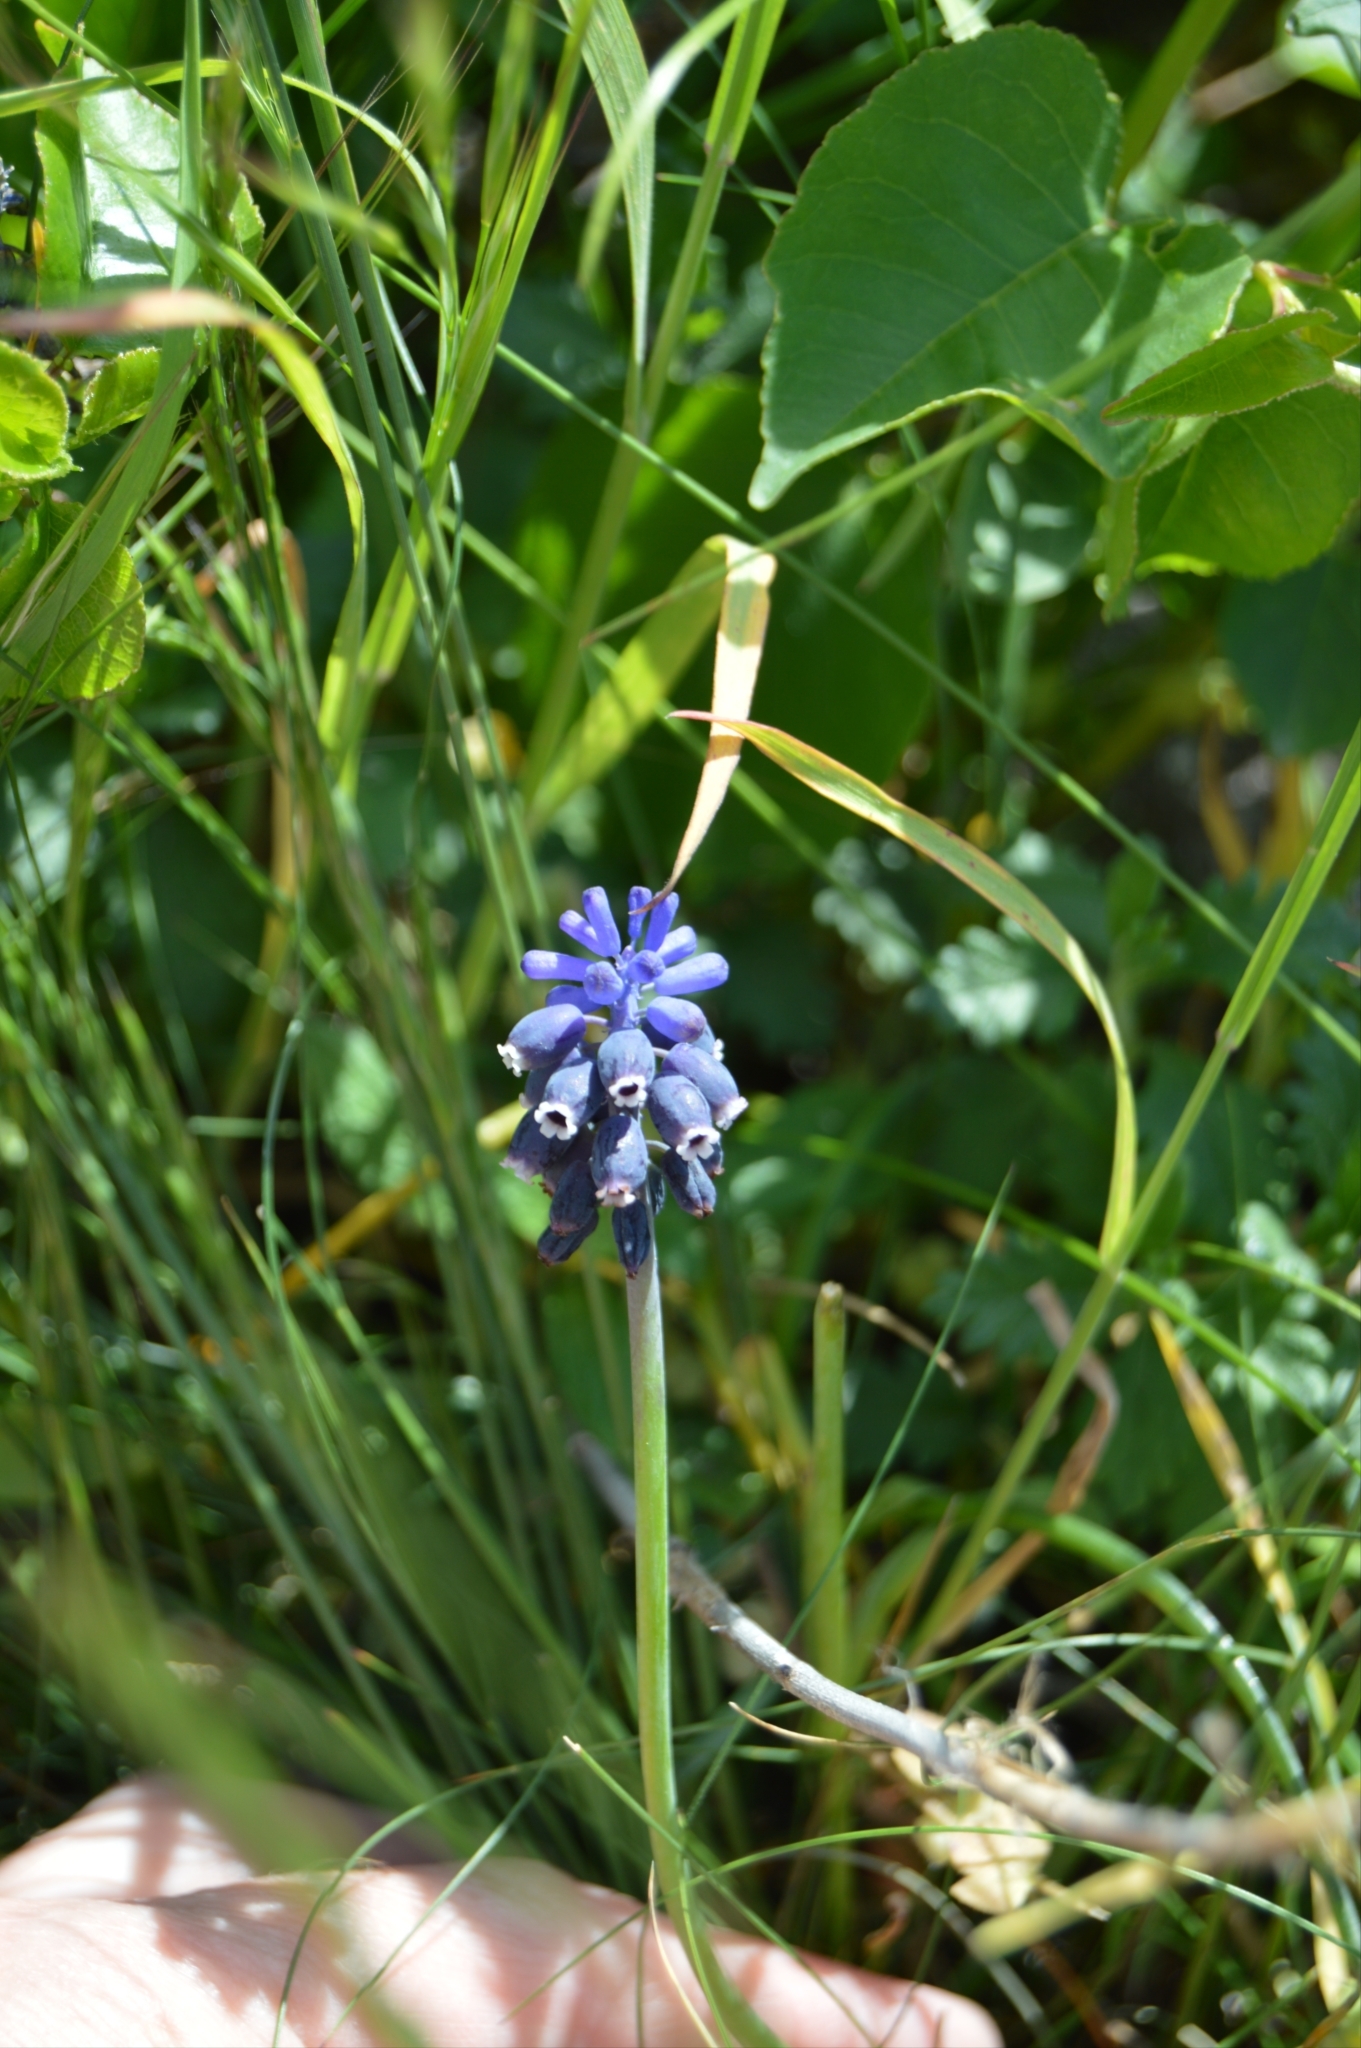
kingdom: Plantae
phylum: Tracheophyta
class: Liliopsida
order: Asparagales
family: Asparagaceae
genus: Muscari
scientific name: Muscari neglectum
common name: Grape-hyacinth
